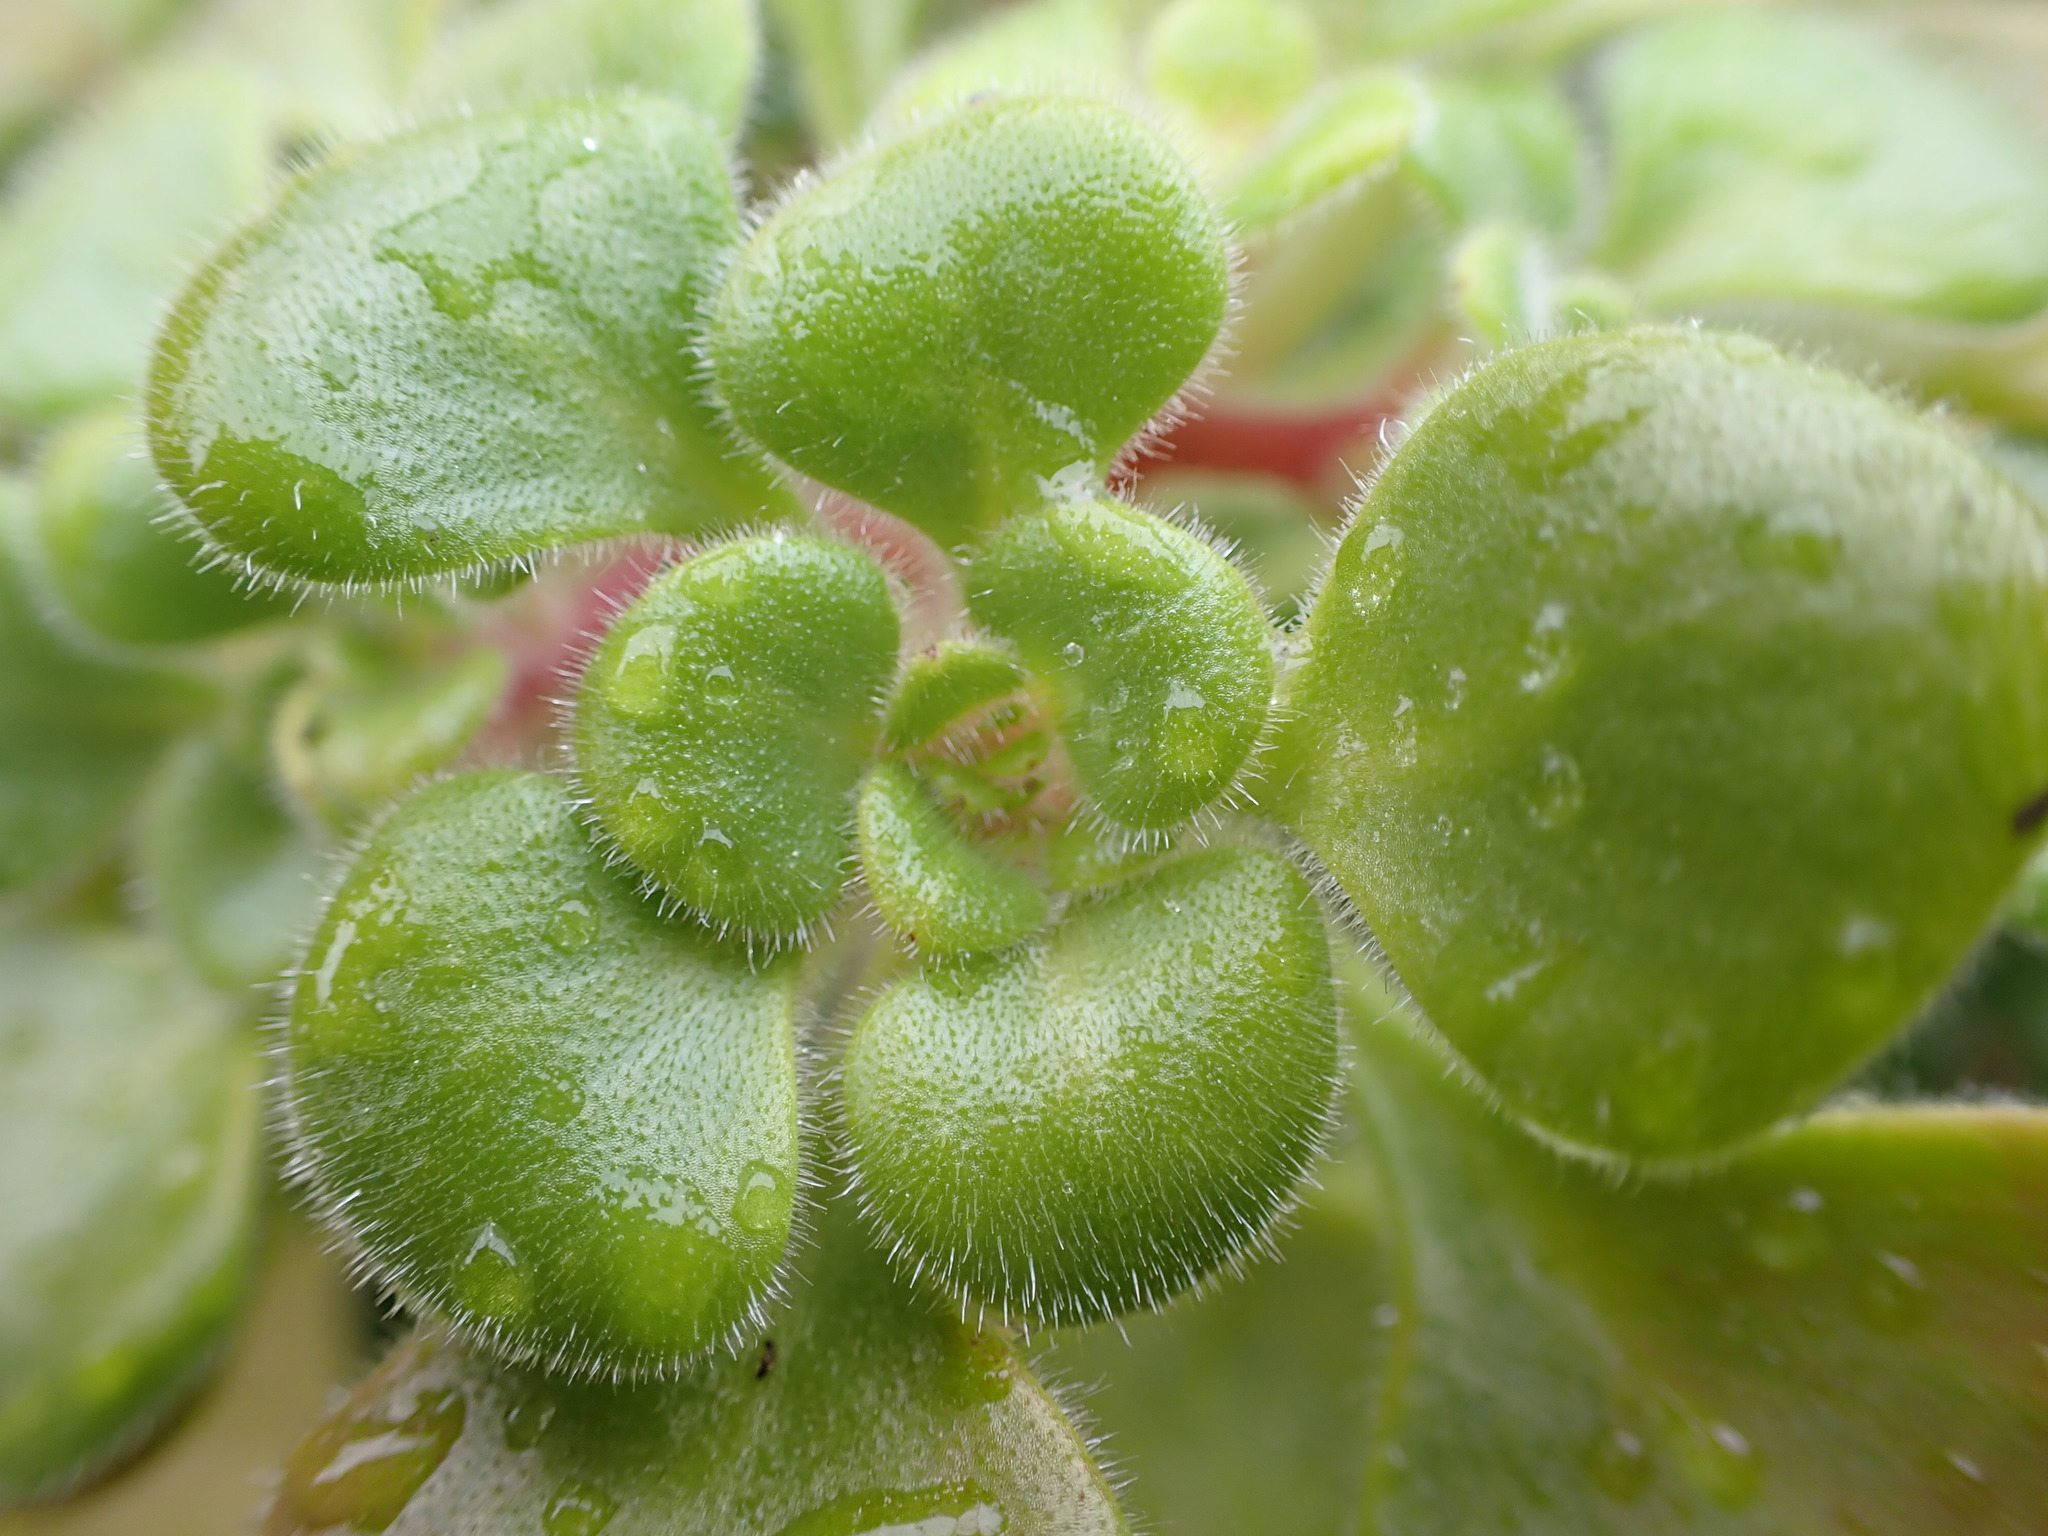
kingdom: Plantae
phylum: Tracheophyta
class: Magnoliopsida
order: Saxifragales
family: Crassulaceae
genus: Aichryson
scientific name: Aichryson laxum
